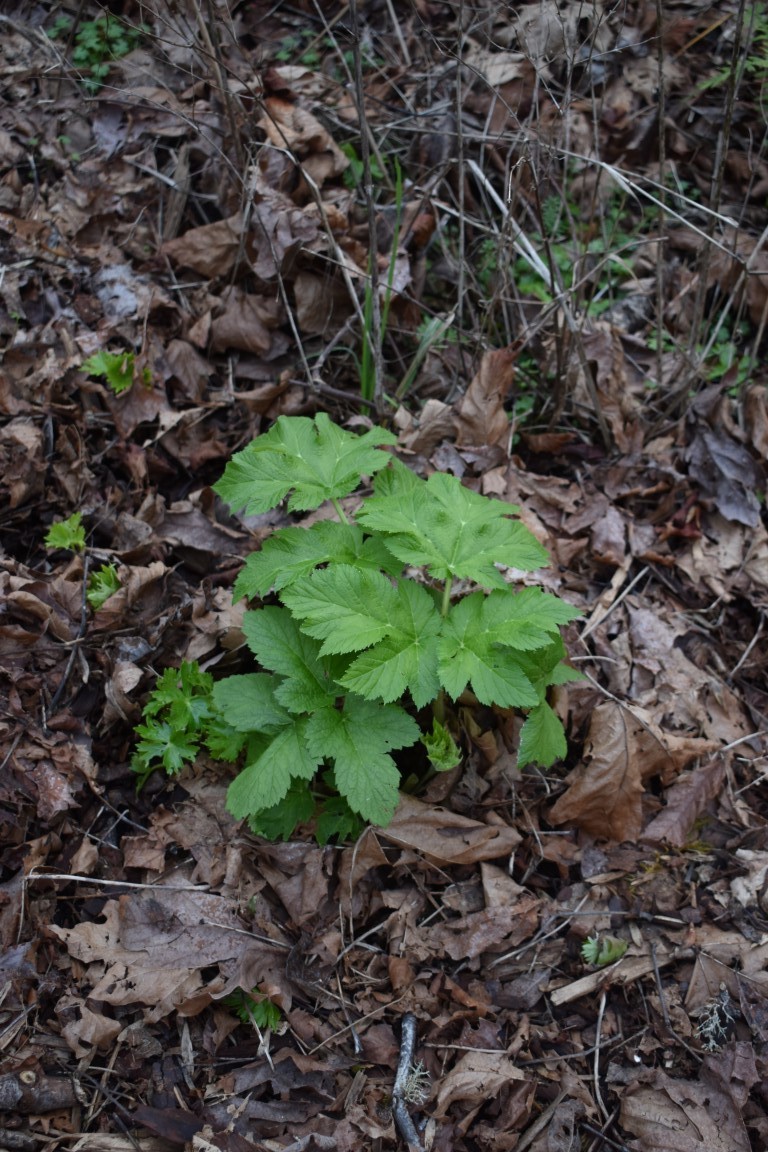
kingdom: Plantae
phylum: Tracheophyta
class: Magnoliopsida
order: Apiales
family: Apiaceae
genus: Heracleum
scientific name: Heracleum maximum
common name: American cow parsnip
